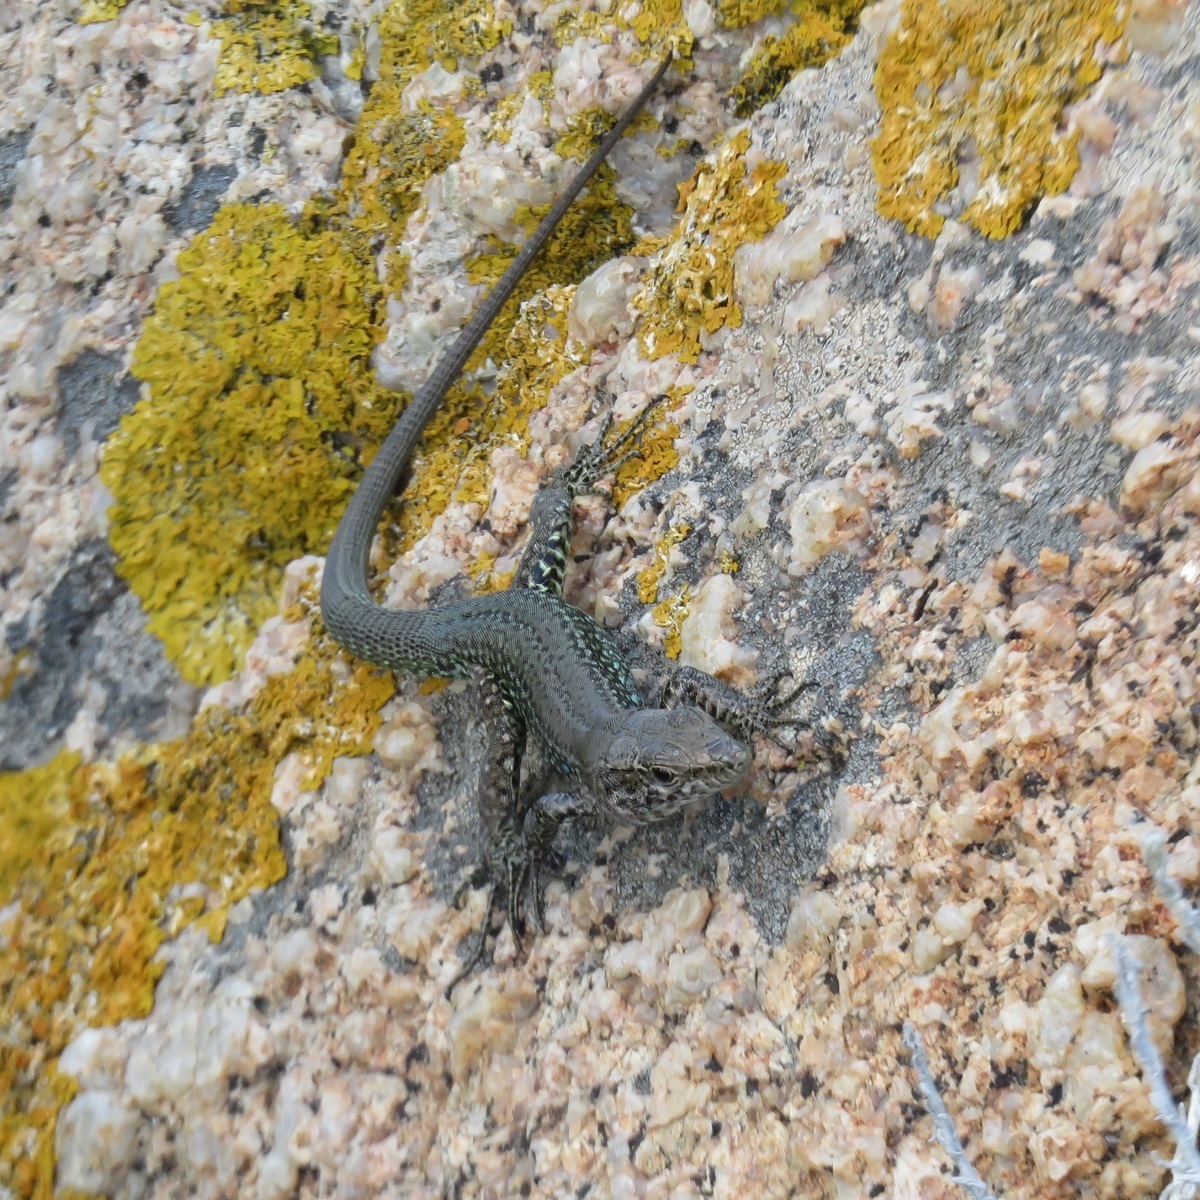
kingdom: Animalia
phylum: Chordata
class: Squamata
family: Lacertidae
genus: Podarcis
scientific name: Podarcis tiliguerta
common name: Tyrrhenian wall lizard
